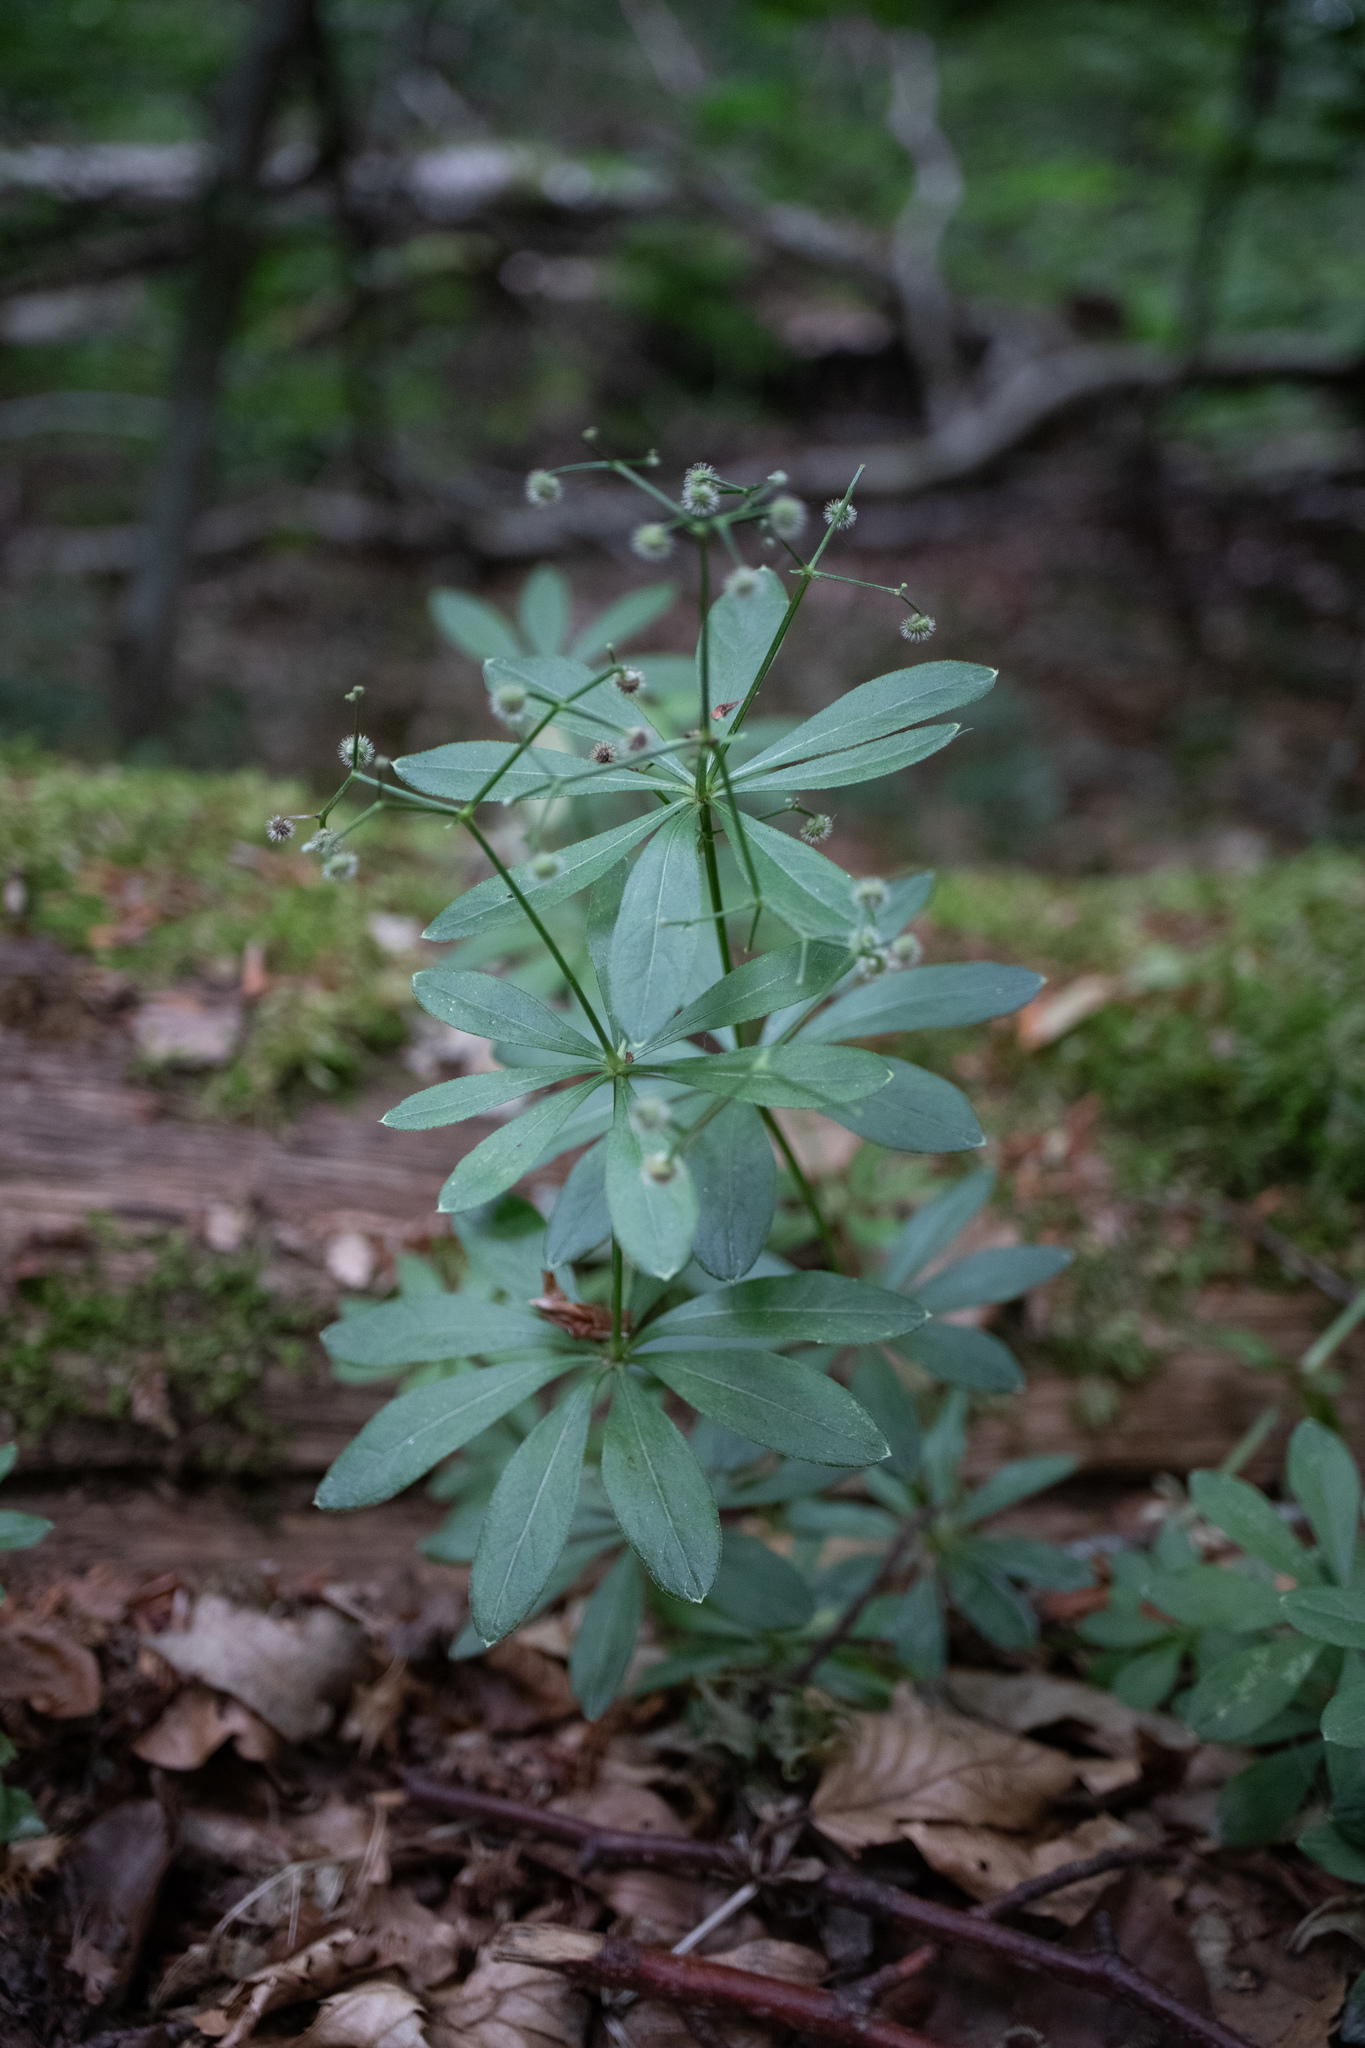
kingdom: Plantae
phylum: Tracheophyta
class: Magnoliopsida
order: Gentianales
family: Rubiaceae
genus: Galium
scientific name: Galium odoratum
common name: Sweet woodruff
